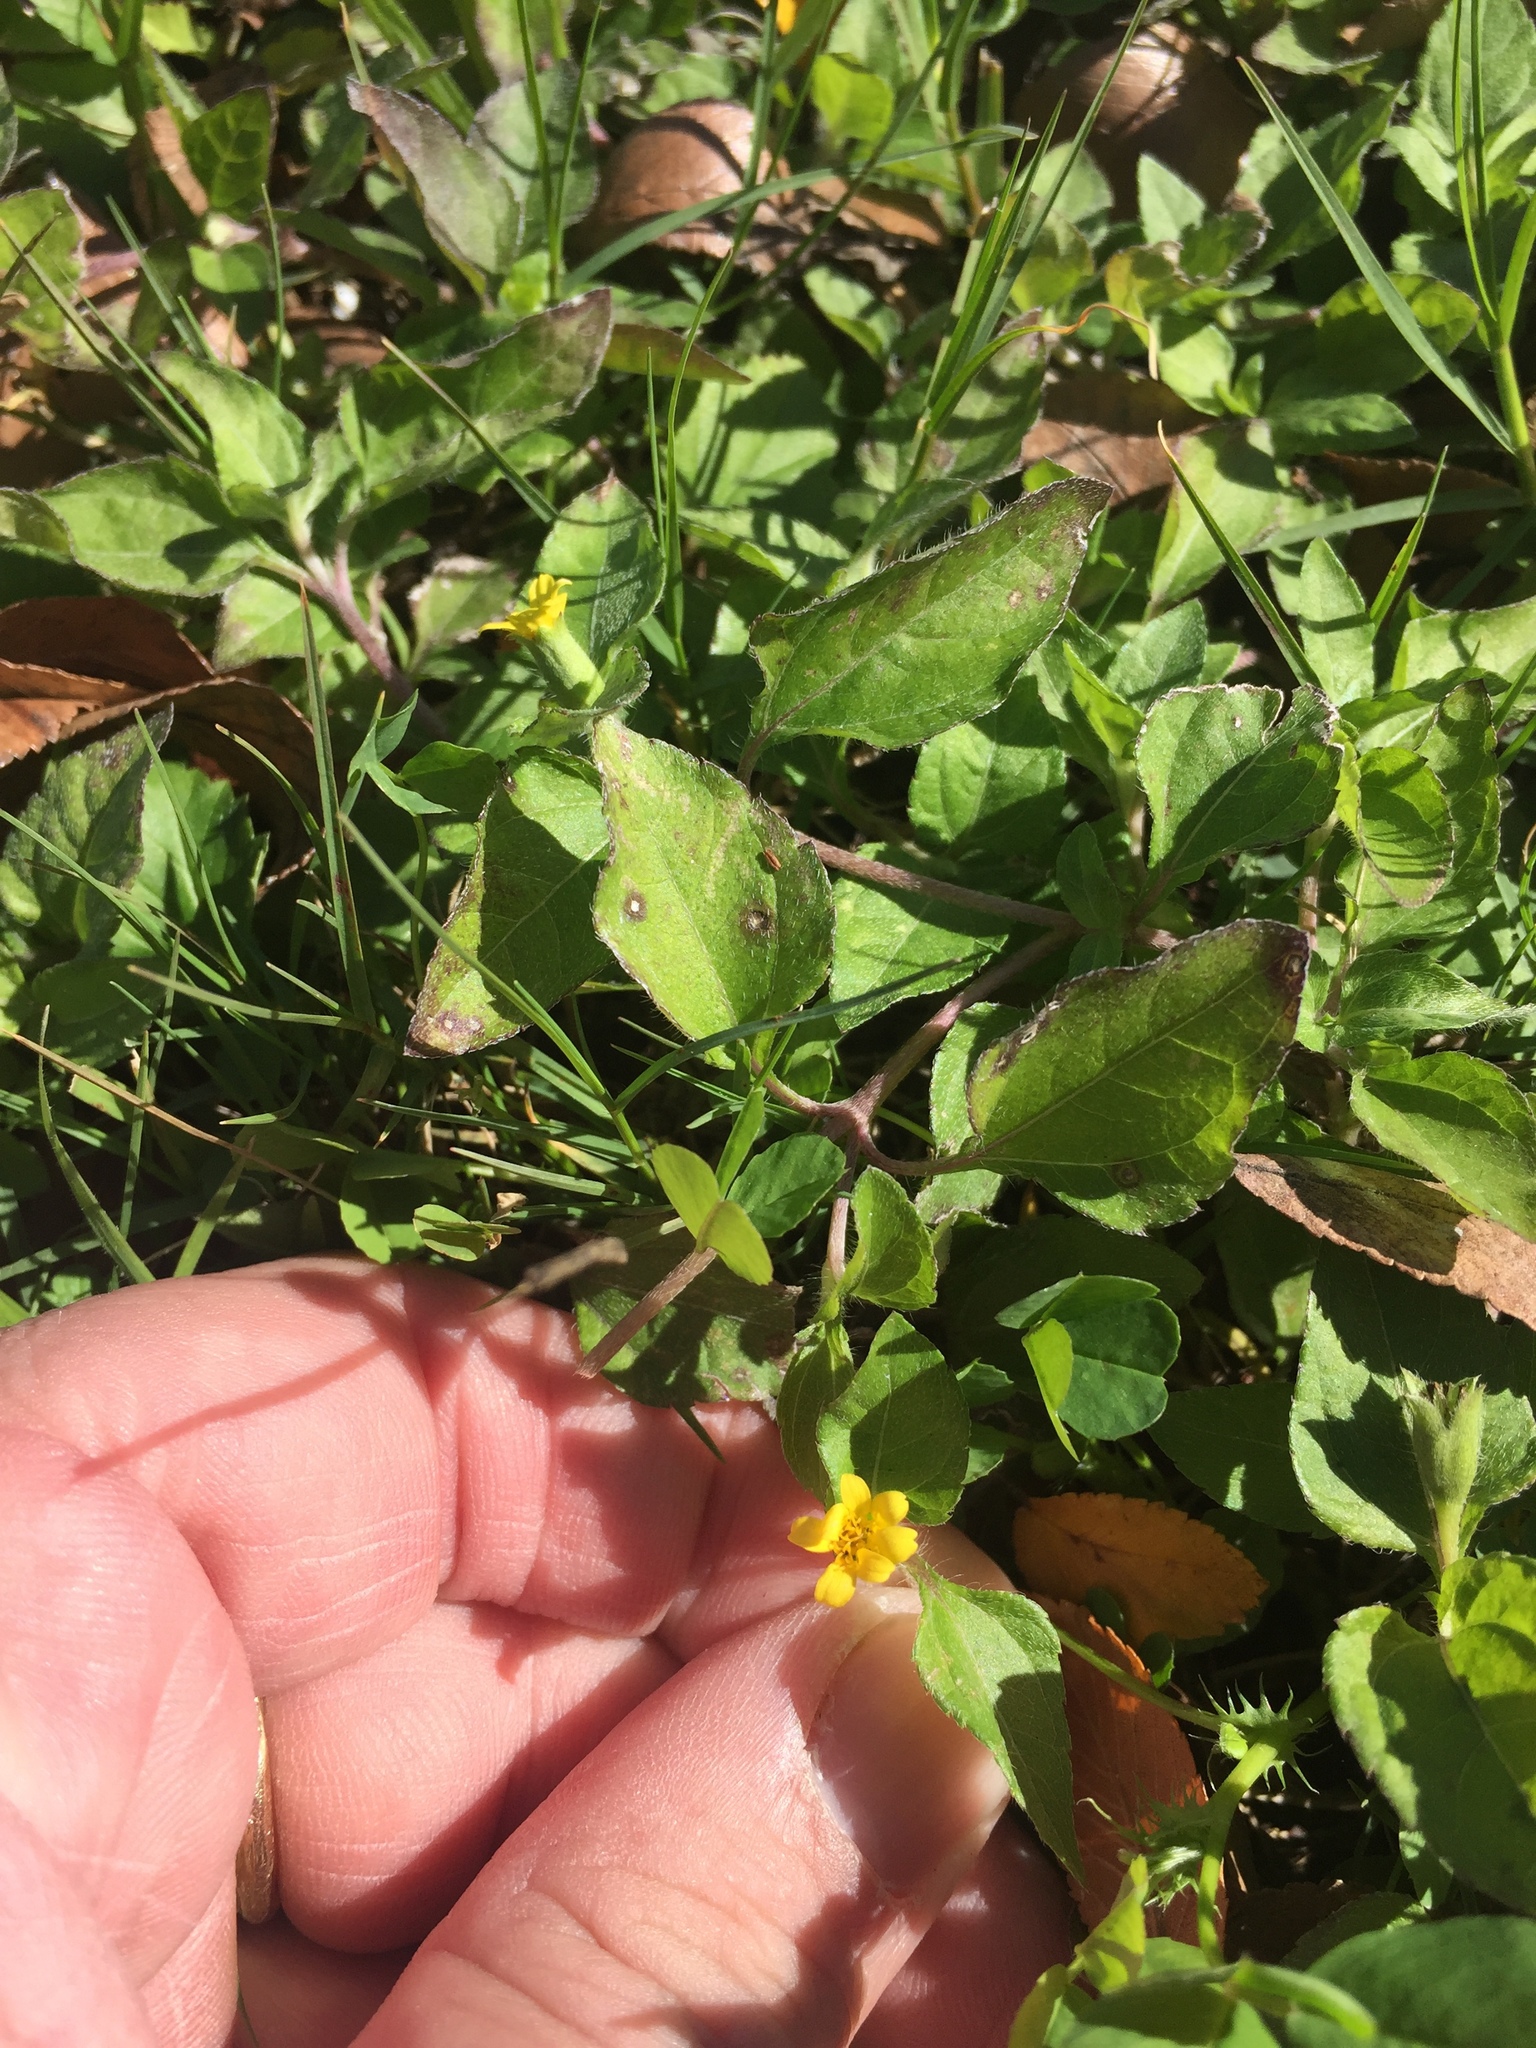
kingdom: Plantae
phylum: Tracheophyta
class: Magnoliopsida
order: Asterales
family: Asteraceae
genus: Calyptocarpus
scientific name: Calyptocarpus vialis
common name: Straggler daisy
